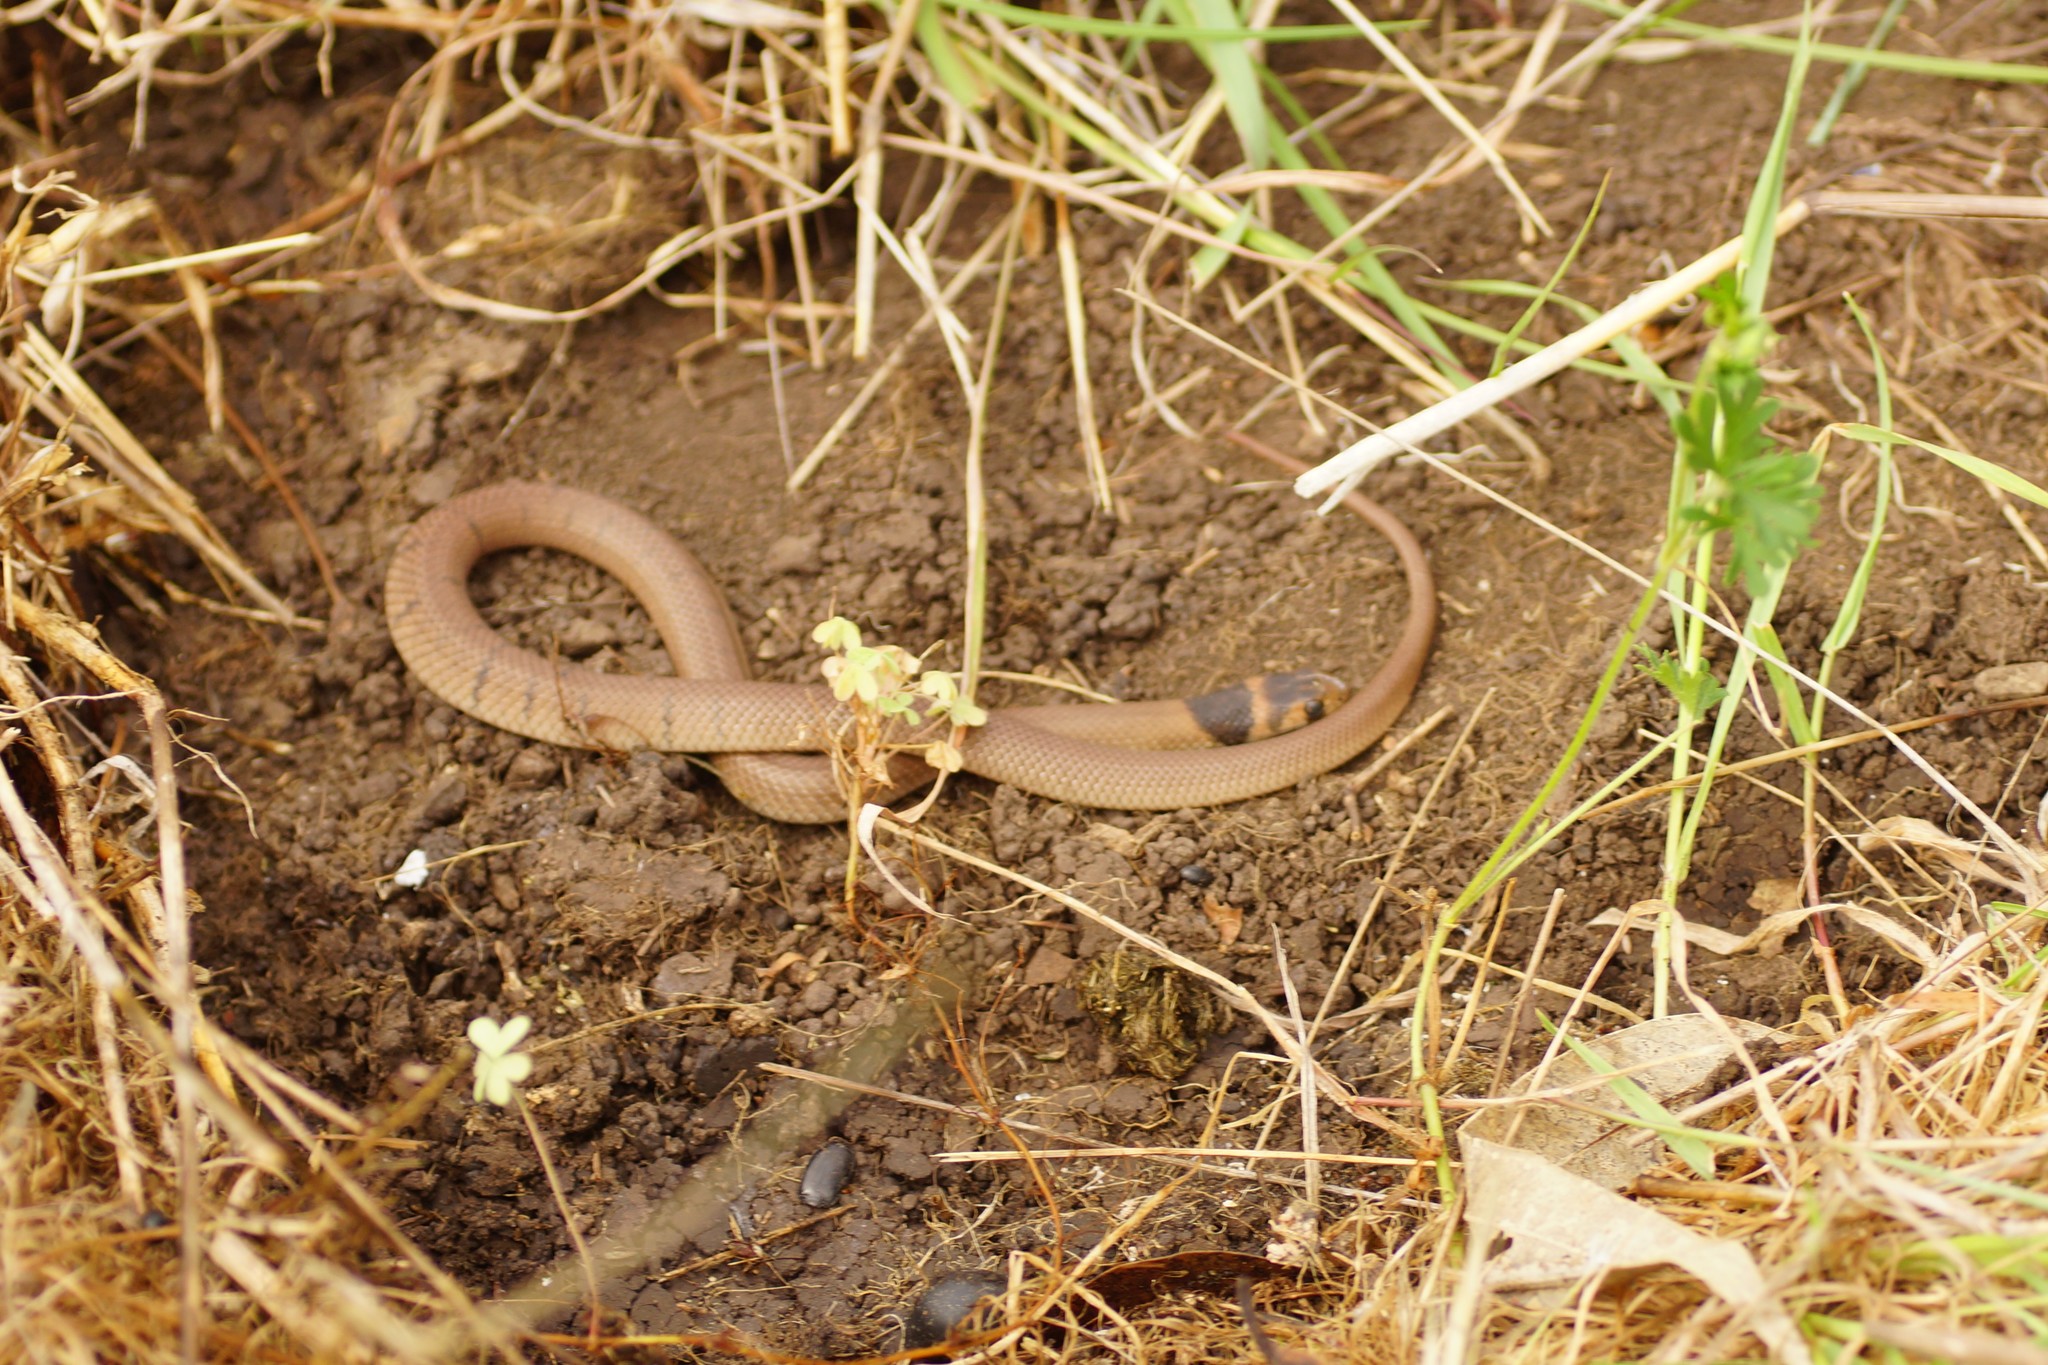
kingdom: Animalia
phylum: Chordata
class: Squamata
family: Elapidae
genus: Pseudonaja
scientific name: Pseudonaja textilis
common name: Eastern brown snake
